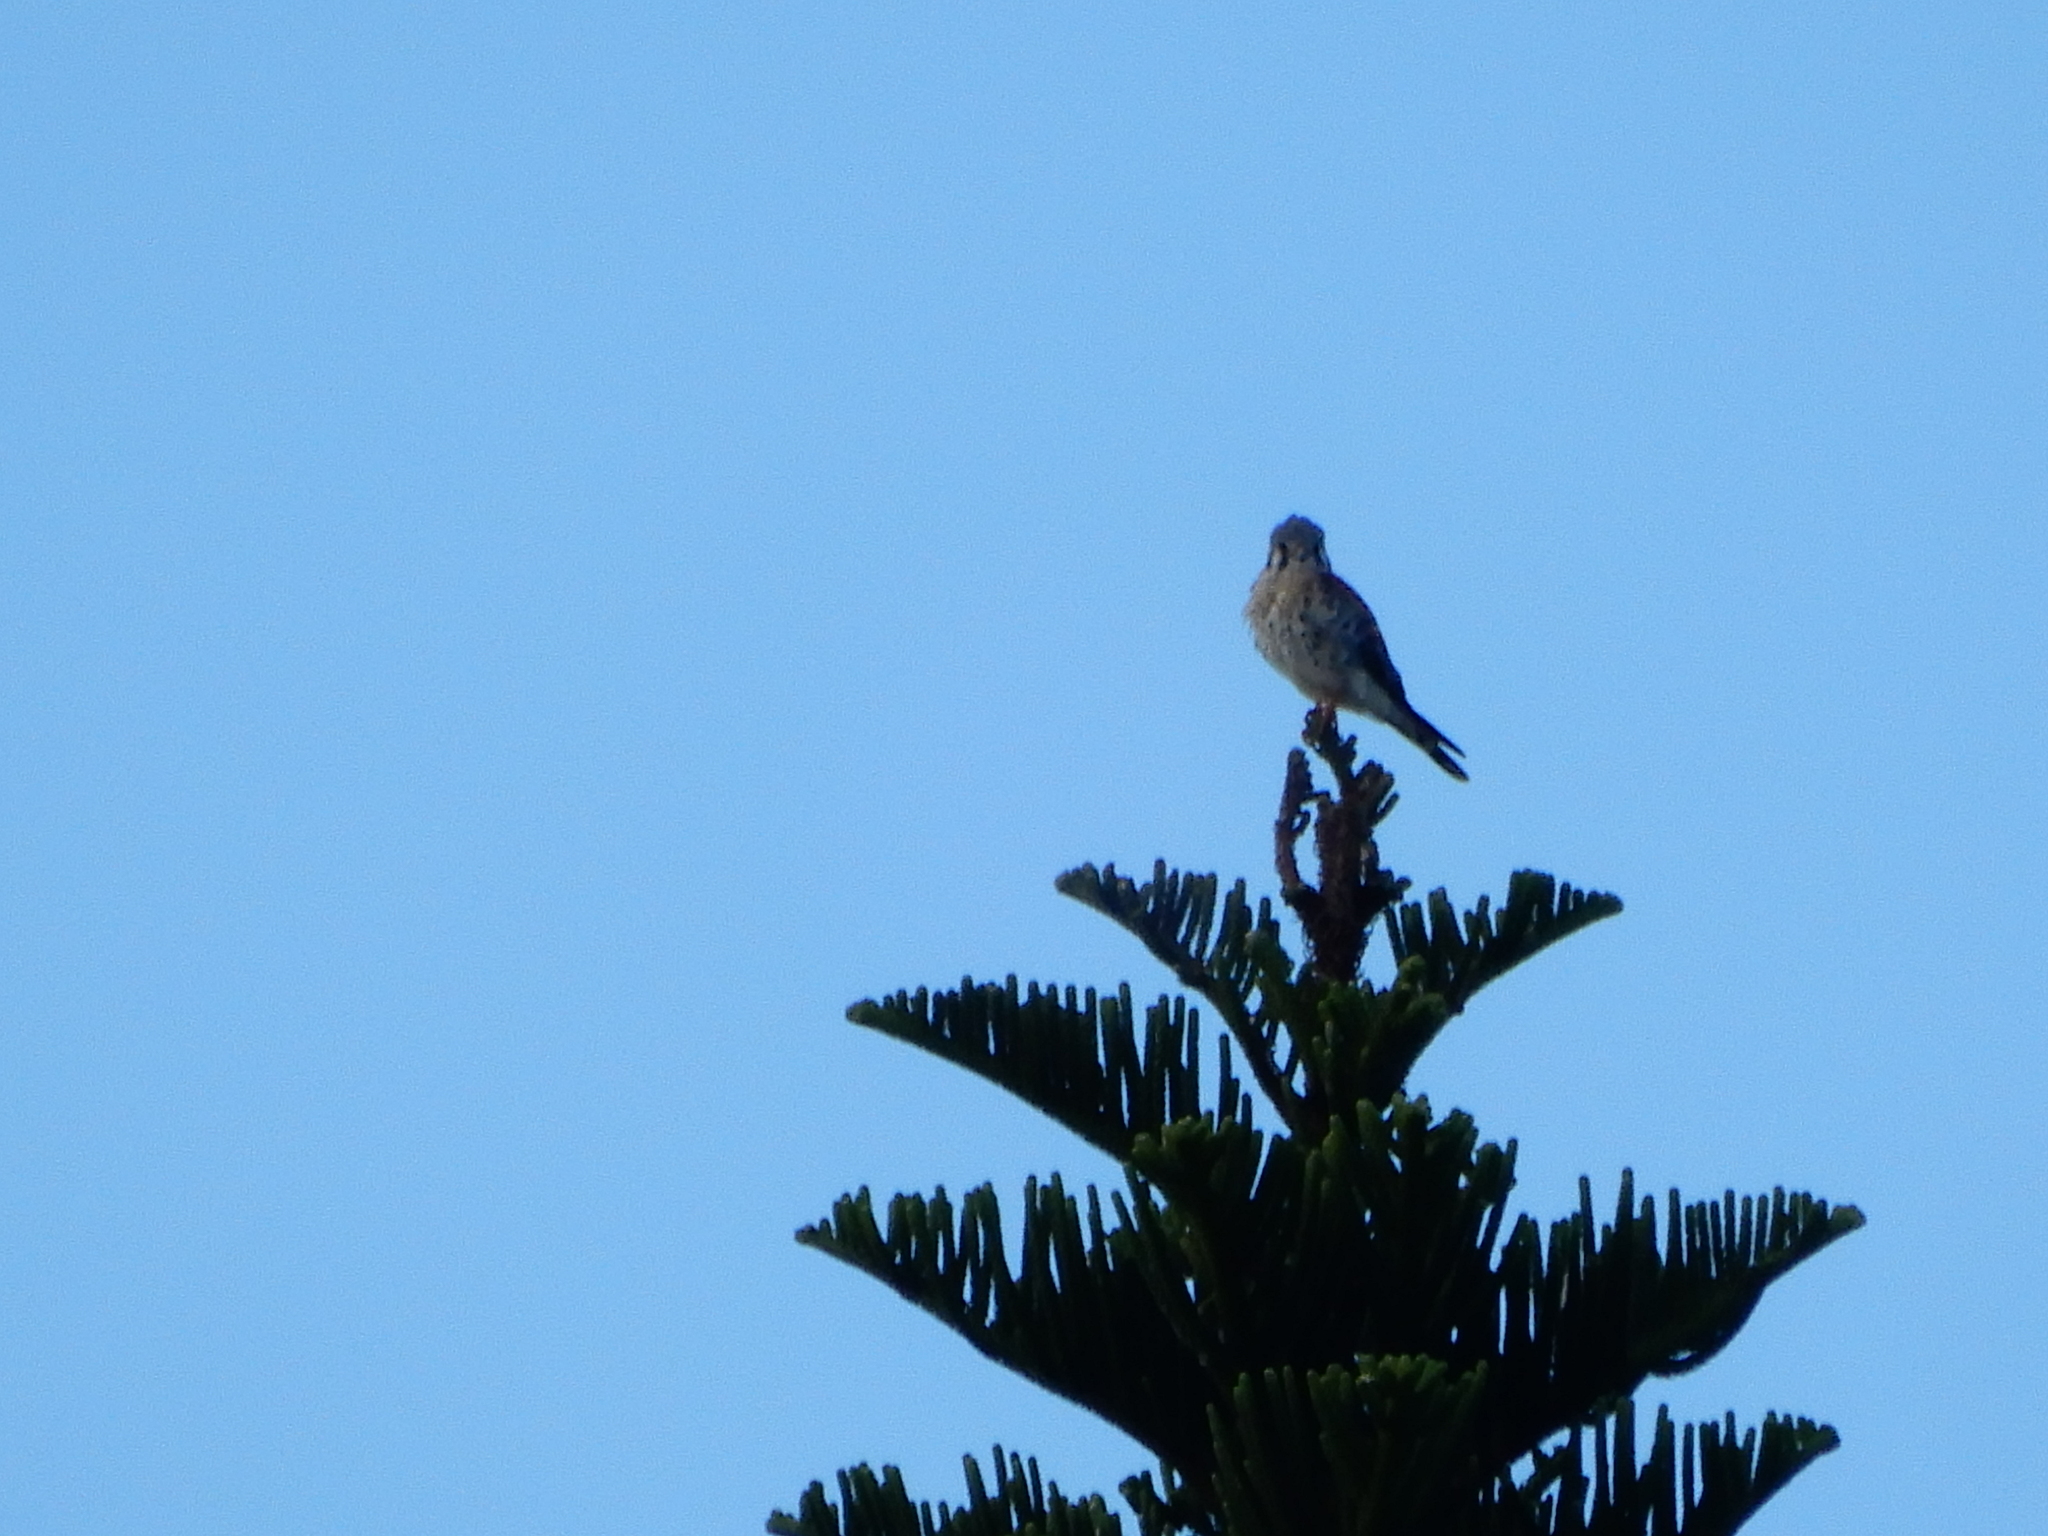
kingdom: Animalia
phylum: Chordata
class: Aves
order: Falconiformes
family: Falconidae
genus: Falco
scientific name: Falco sparverius
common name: American kestrel
